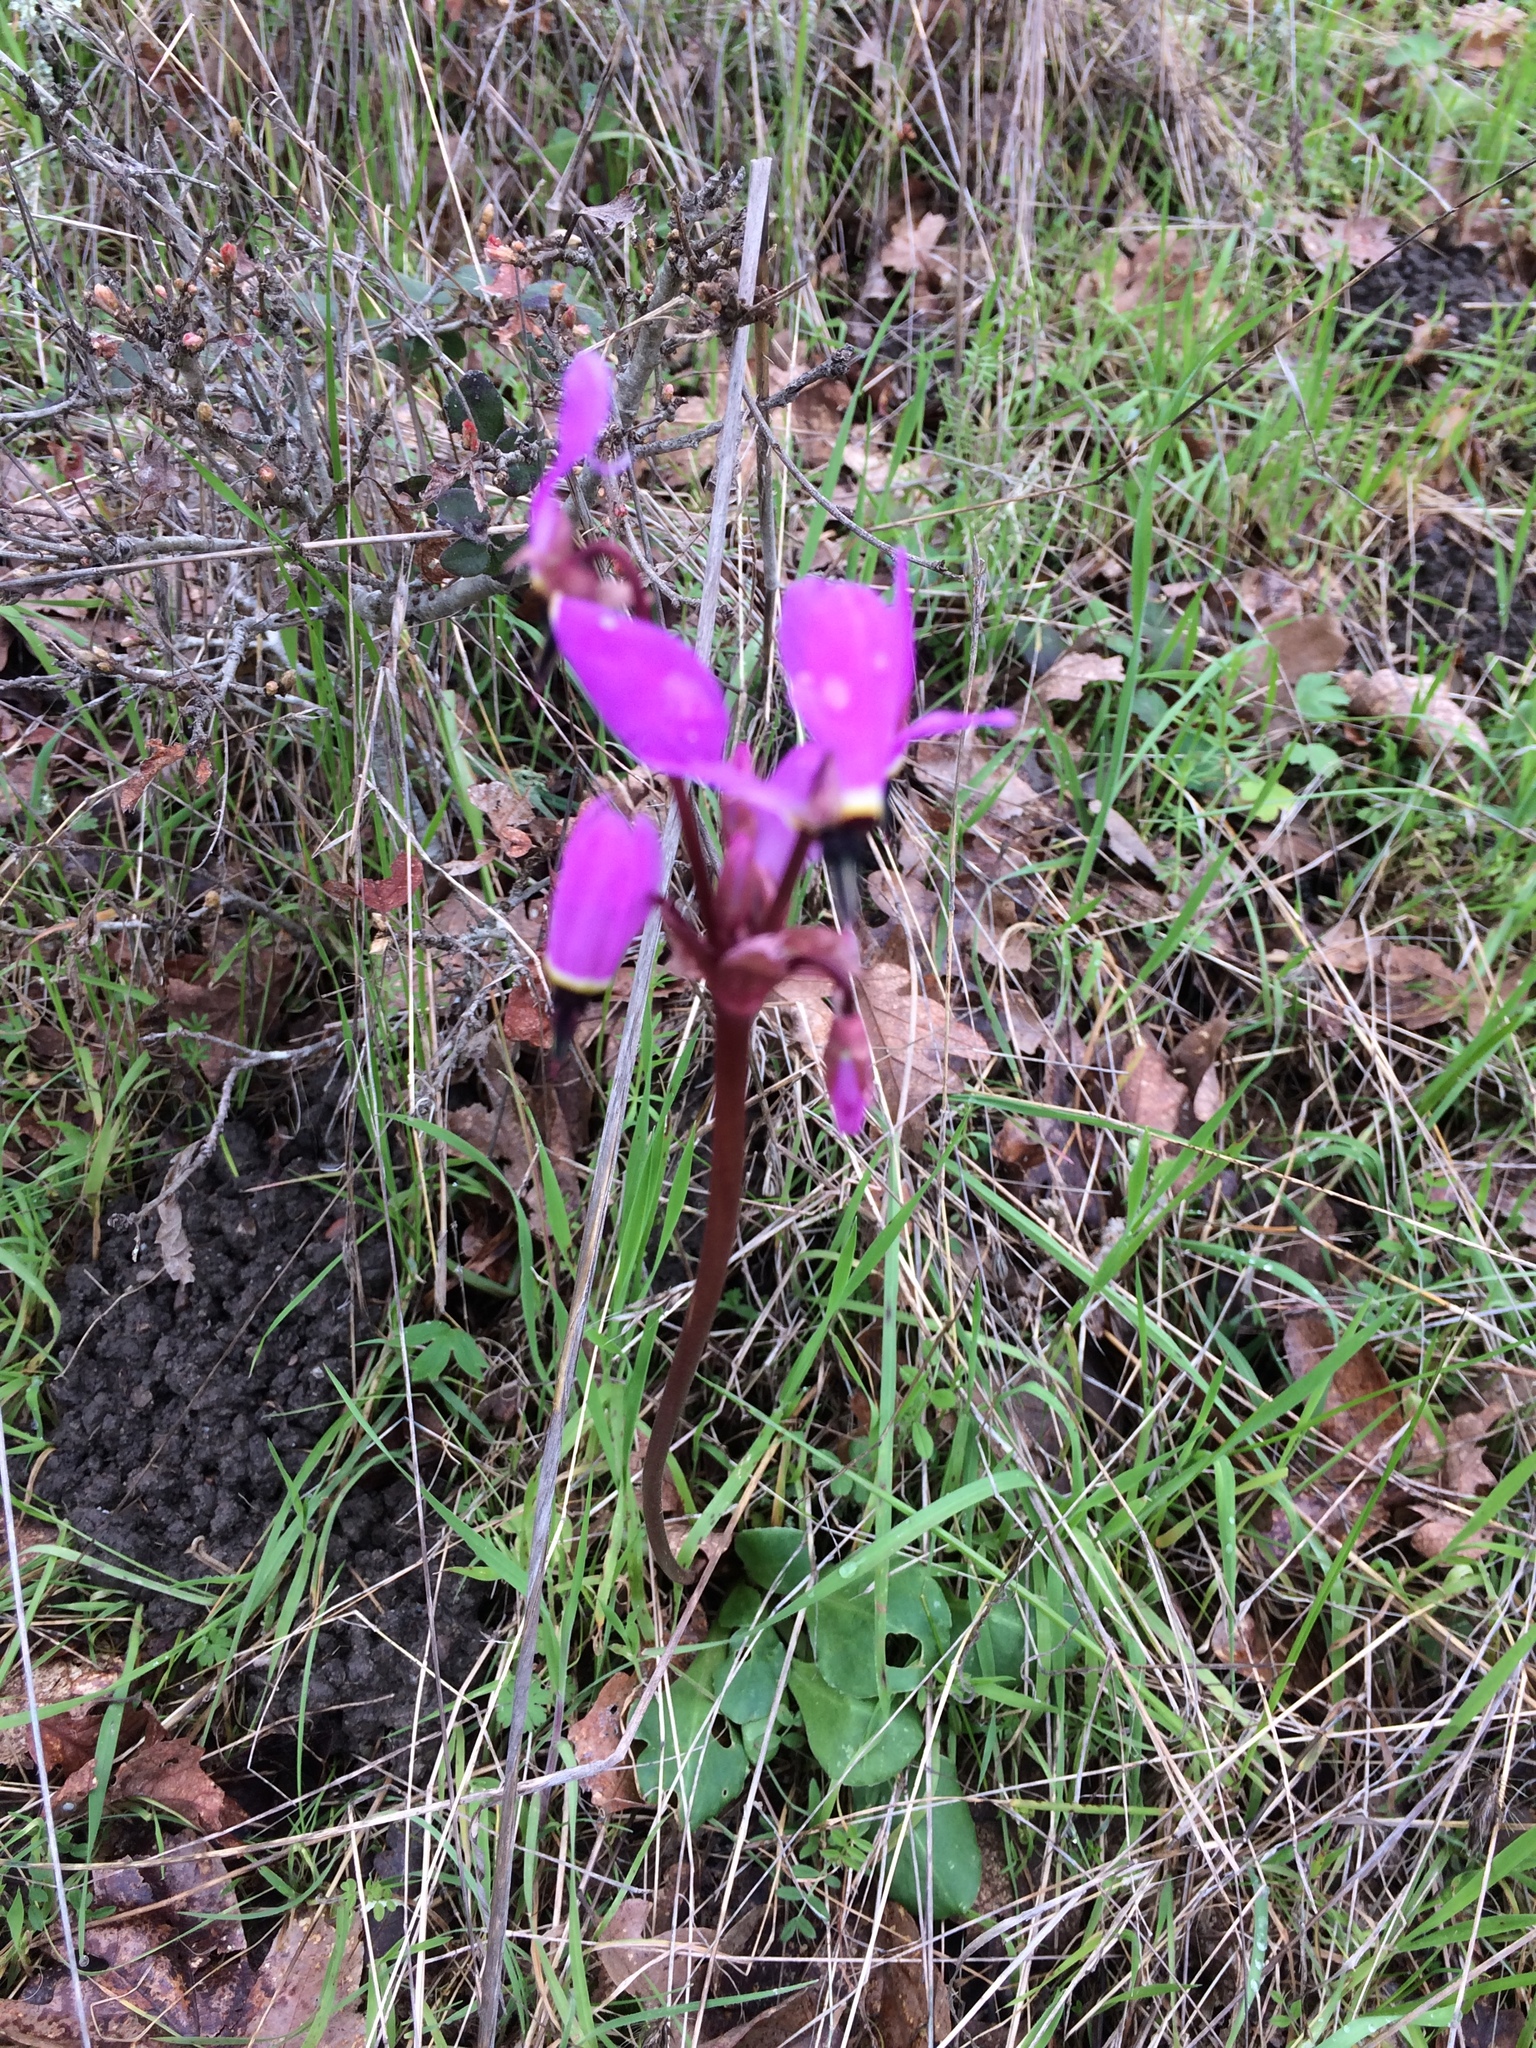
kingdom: Plantae
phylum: Tracheophyta
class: Magnoliopsida
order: Ericales
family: Primulaceae
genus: Dodecatheon
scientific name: Dodecatheon hendersonii
